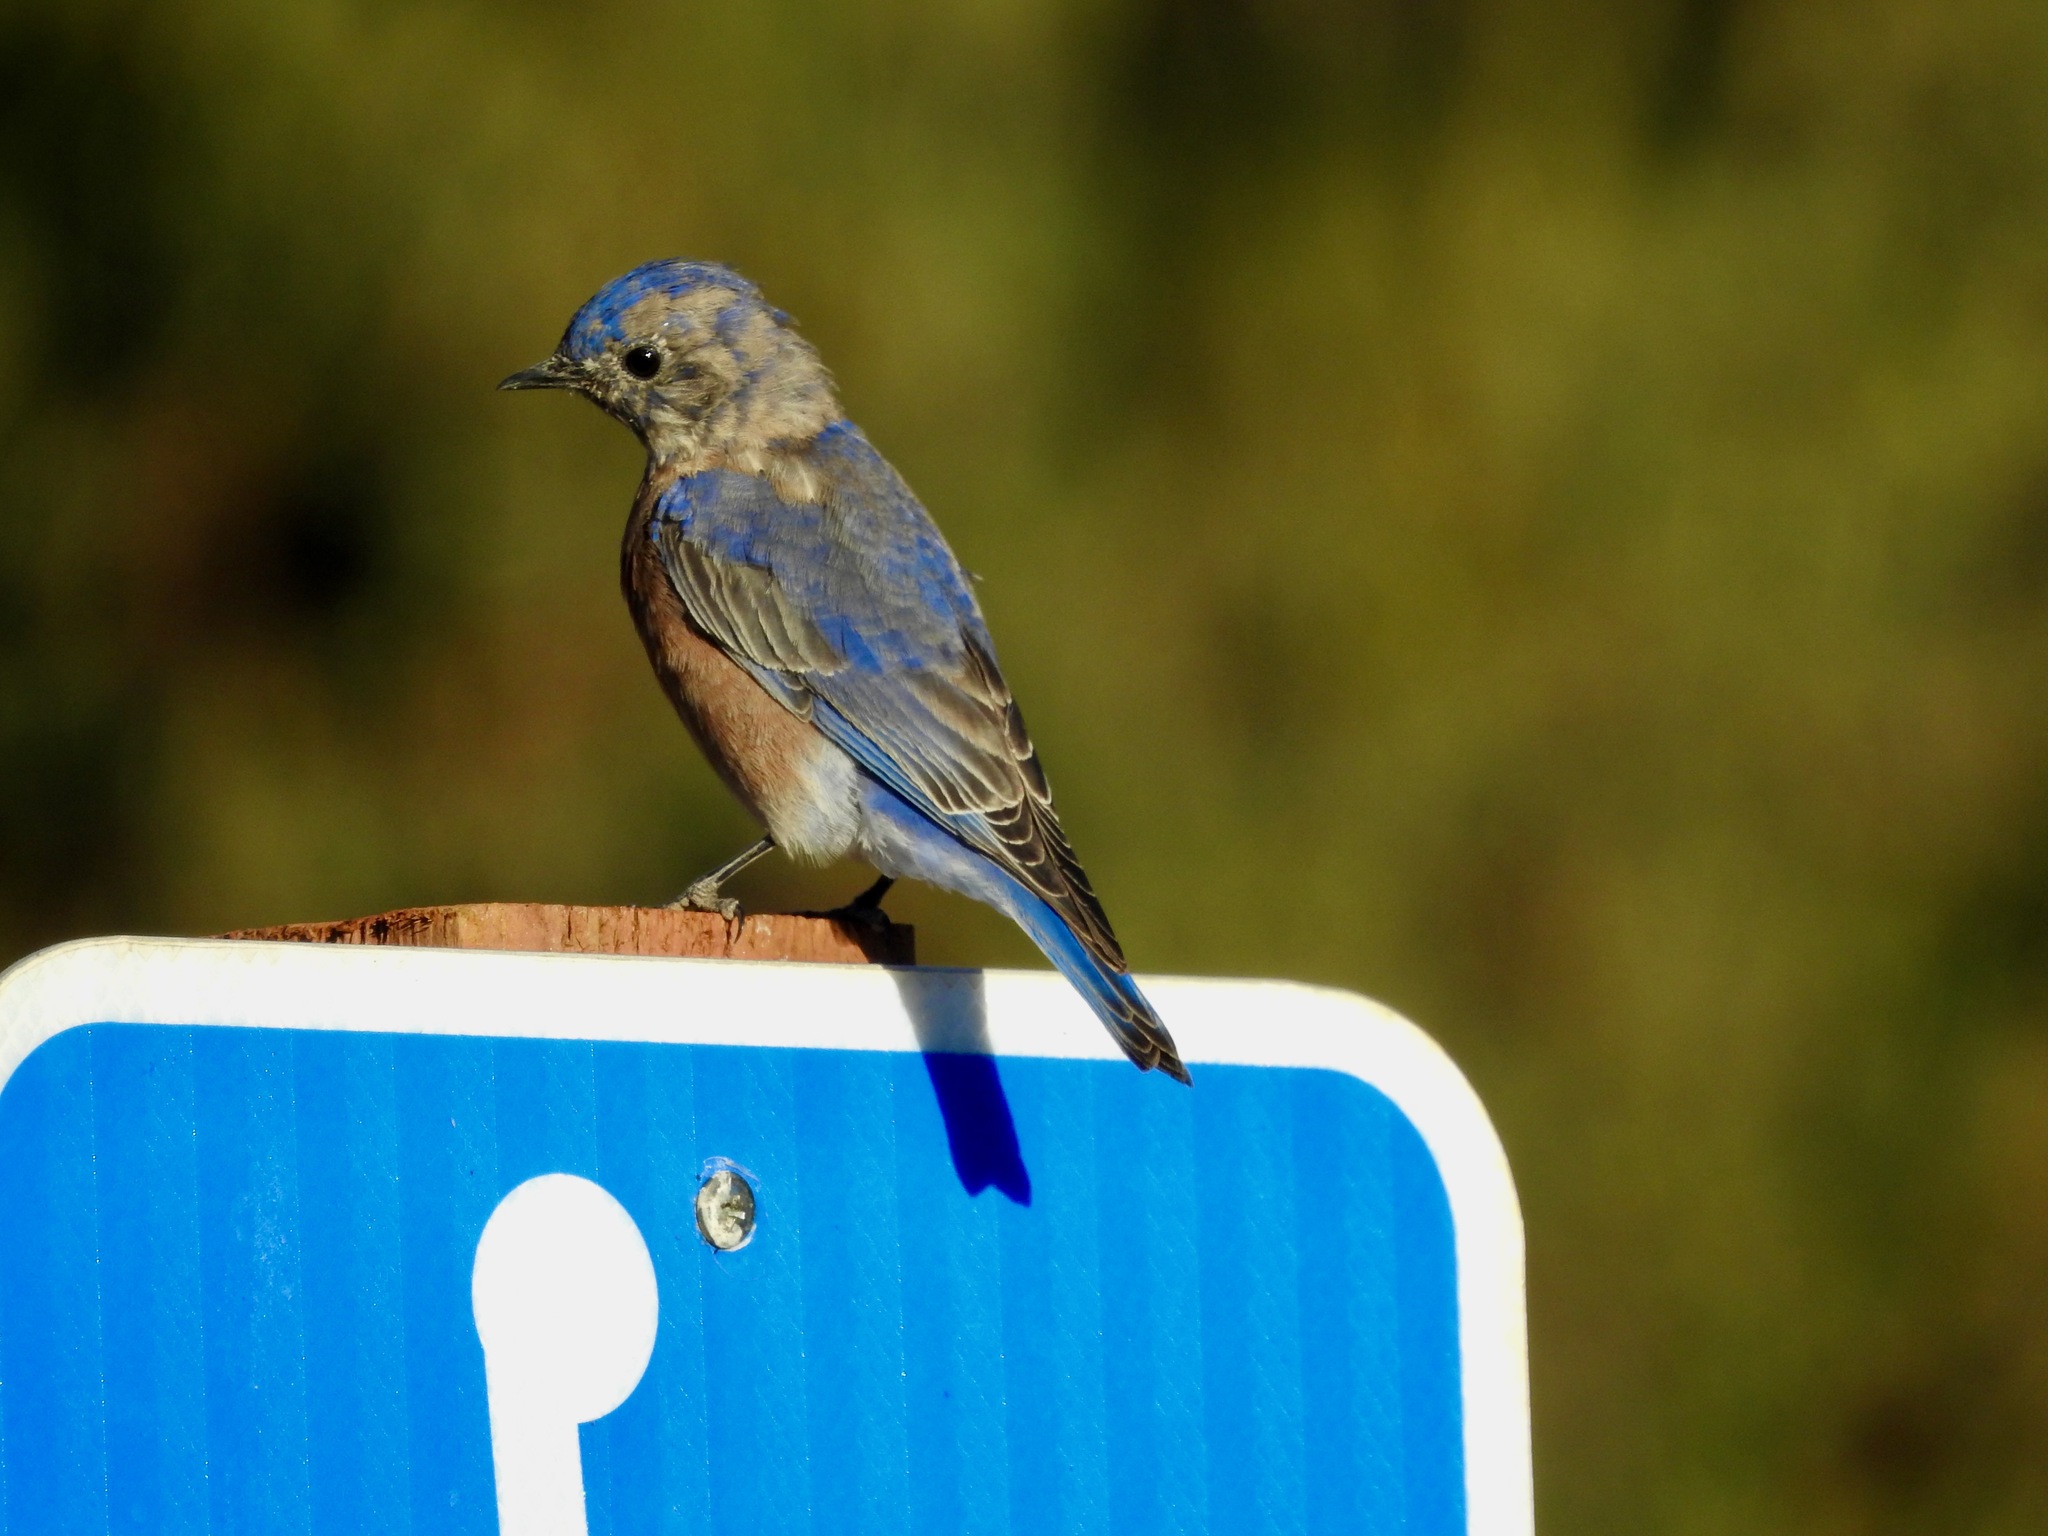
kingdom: Animalia
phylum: Chordata
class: Aves
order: Passeriformes
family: Turdidae
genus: Sialia
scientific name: Sialia mexicana
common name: Western bluebird
